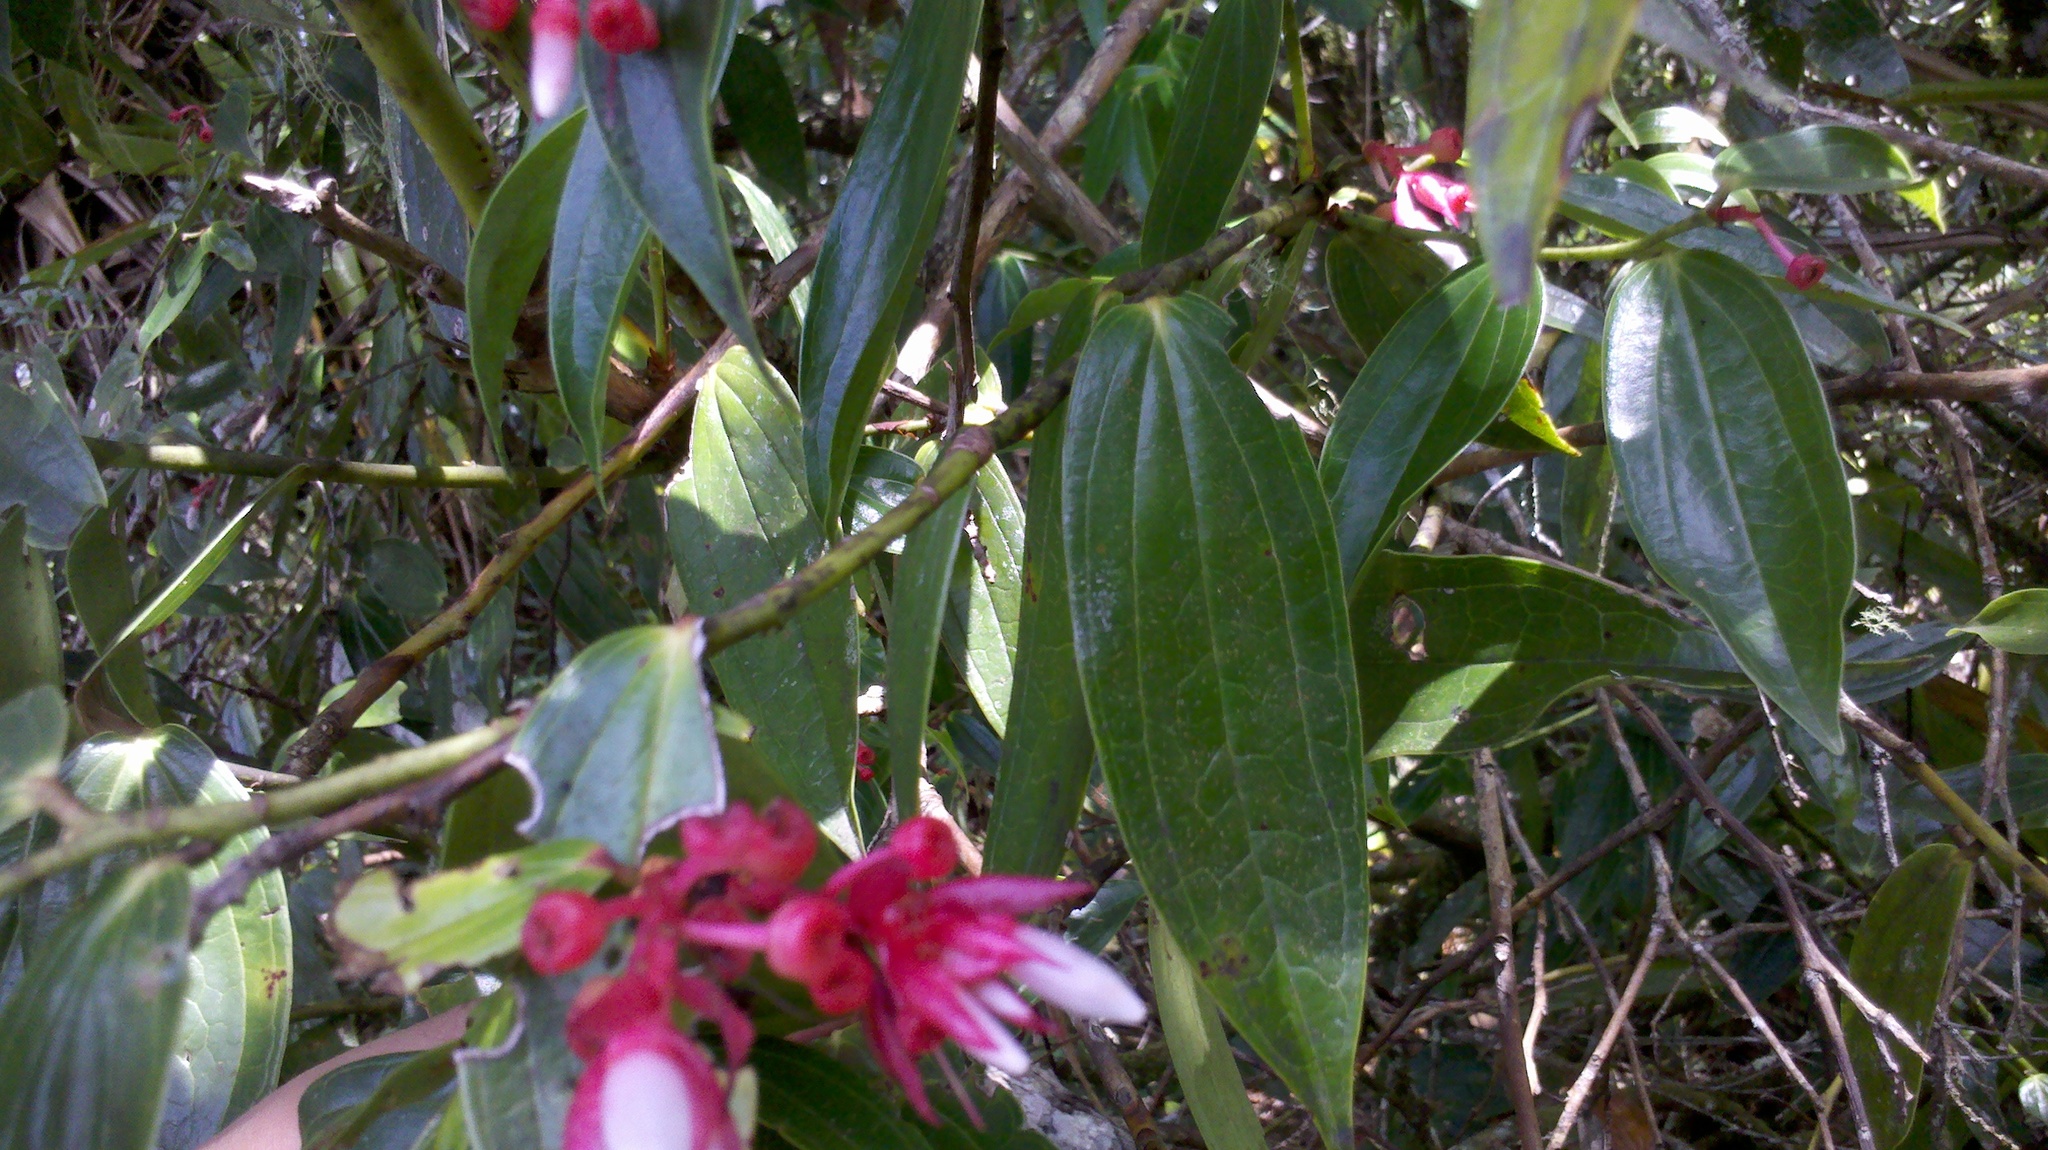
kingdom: Plantae
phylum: Tracheophyta
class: Magnoliopsida
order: Ericales
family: Ericaceae
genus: Cavendishia
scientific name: Cavendishia bracteata
